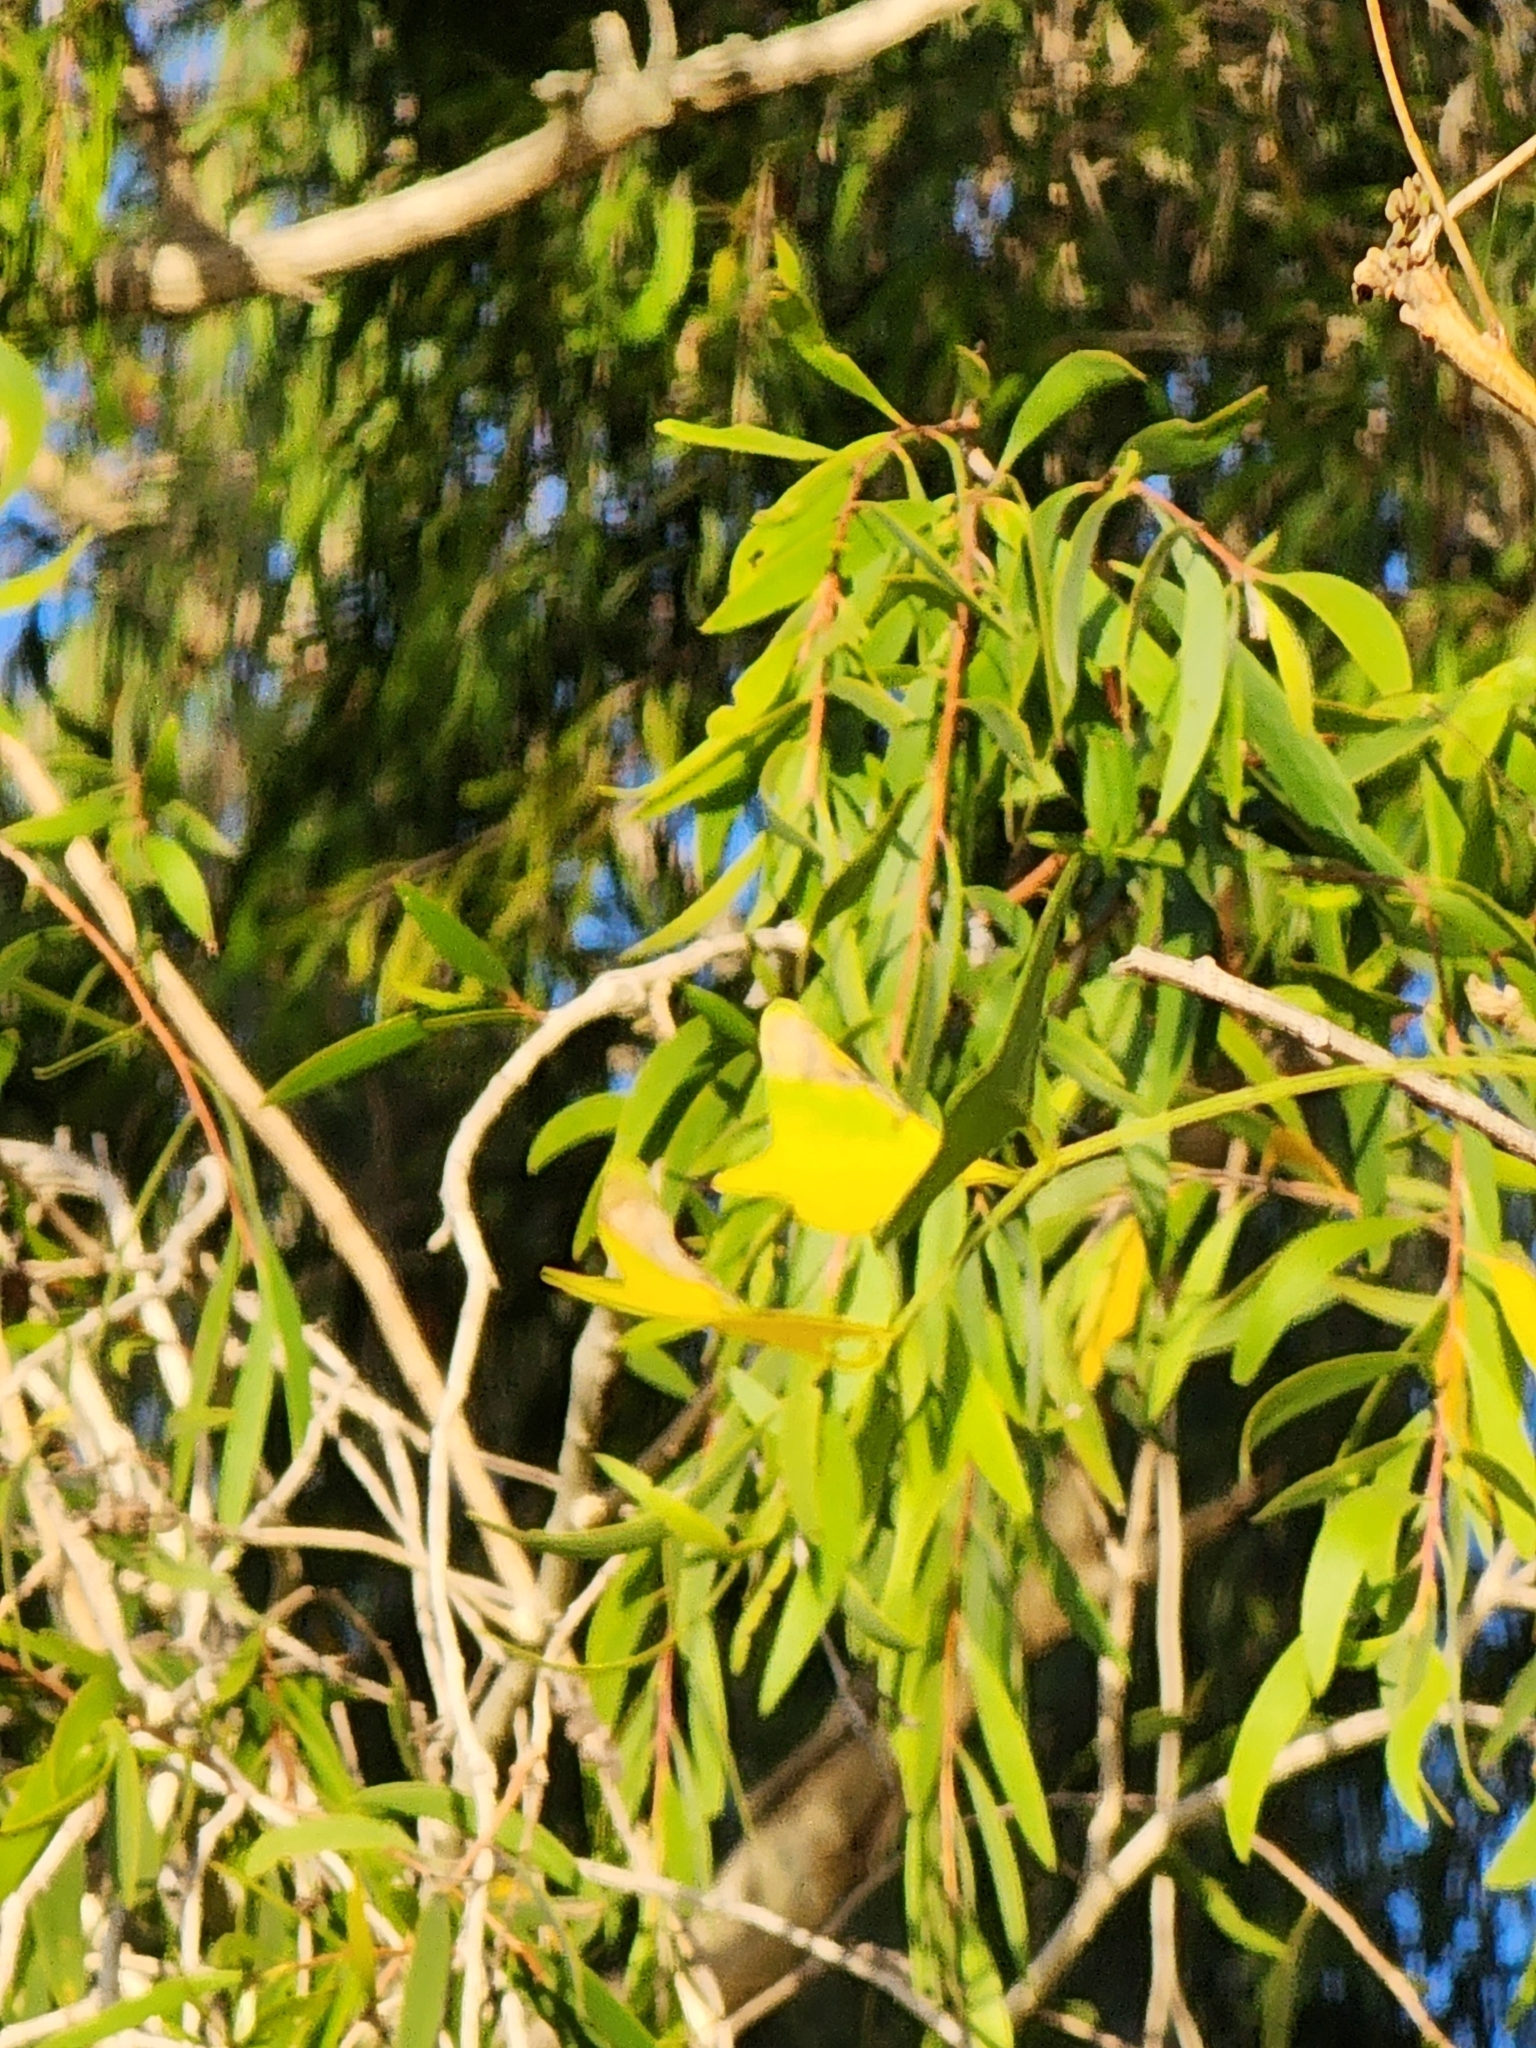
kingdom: Plantae
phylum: Tracheophyta
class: Magnoliopsida
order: Fabales
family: Fabaceae
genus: Erythrina
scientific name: Erythrina vespertilio
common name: Bat-wing coral tree
